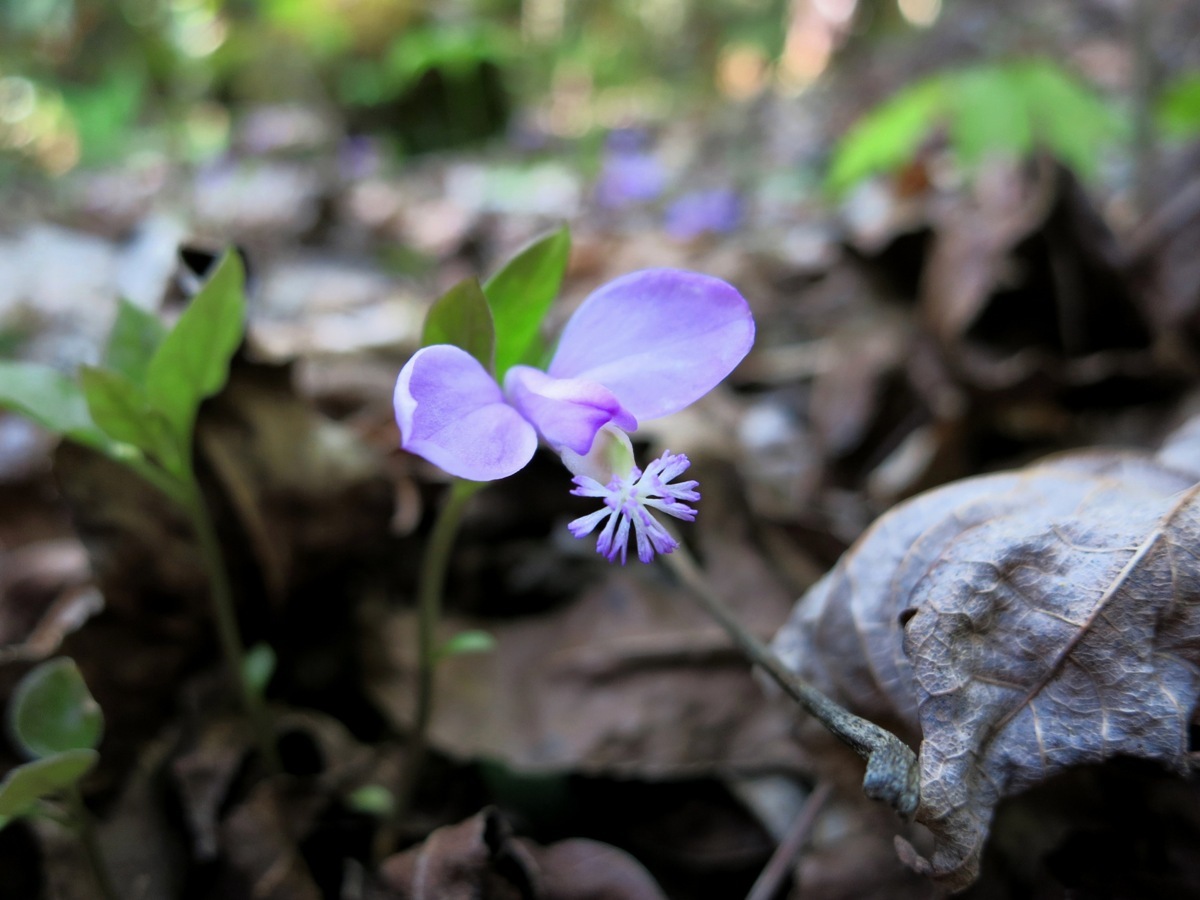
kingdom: Plantae
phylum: Tracheophyta
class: Magnoliopsida
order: Fabales
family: Polygalaceae
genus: Polygaloides
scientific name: Polygaloides paucifolia
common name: Bird-on-the-wing
